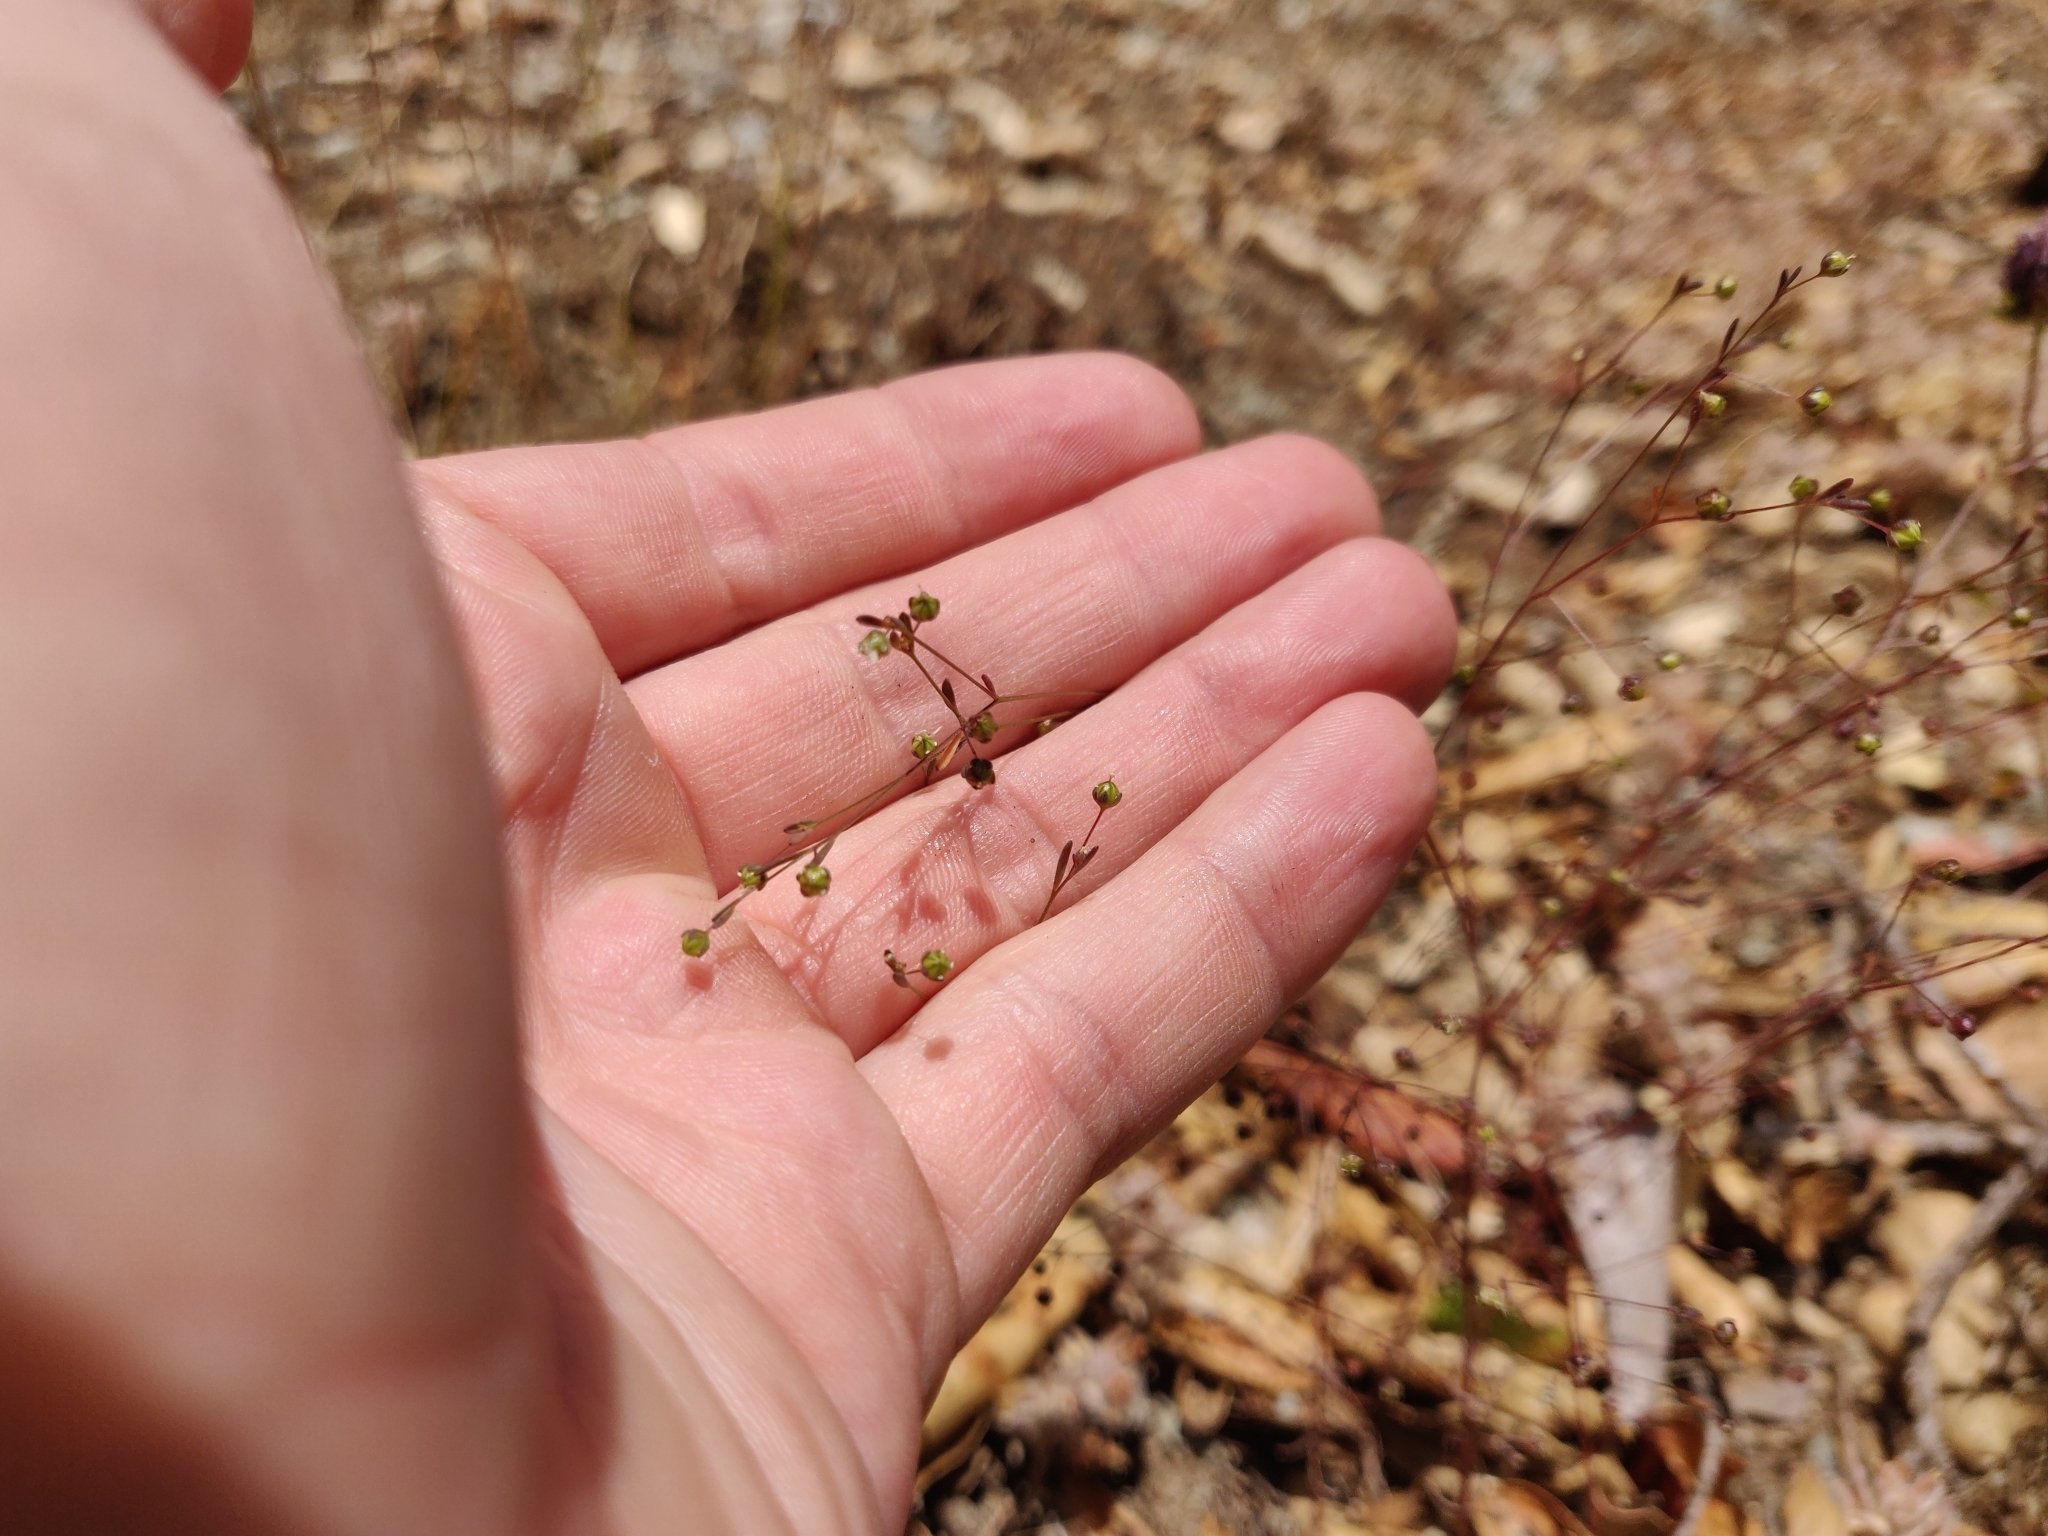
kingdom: Plantae
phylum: Tracheophyta
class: Magnoliopsida
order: Malpighiales
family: Linaceae
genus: Hesperolinon
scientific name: Hesperolinon micranthum
